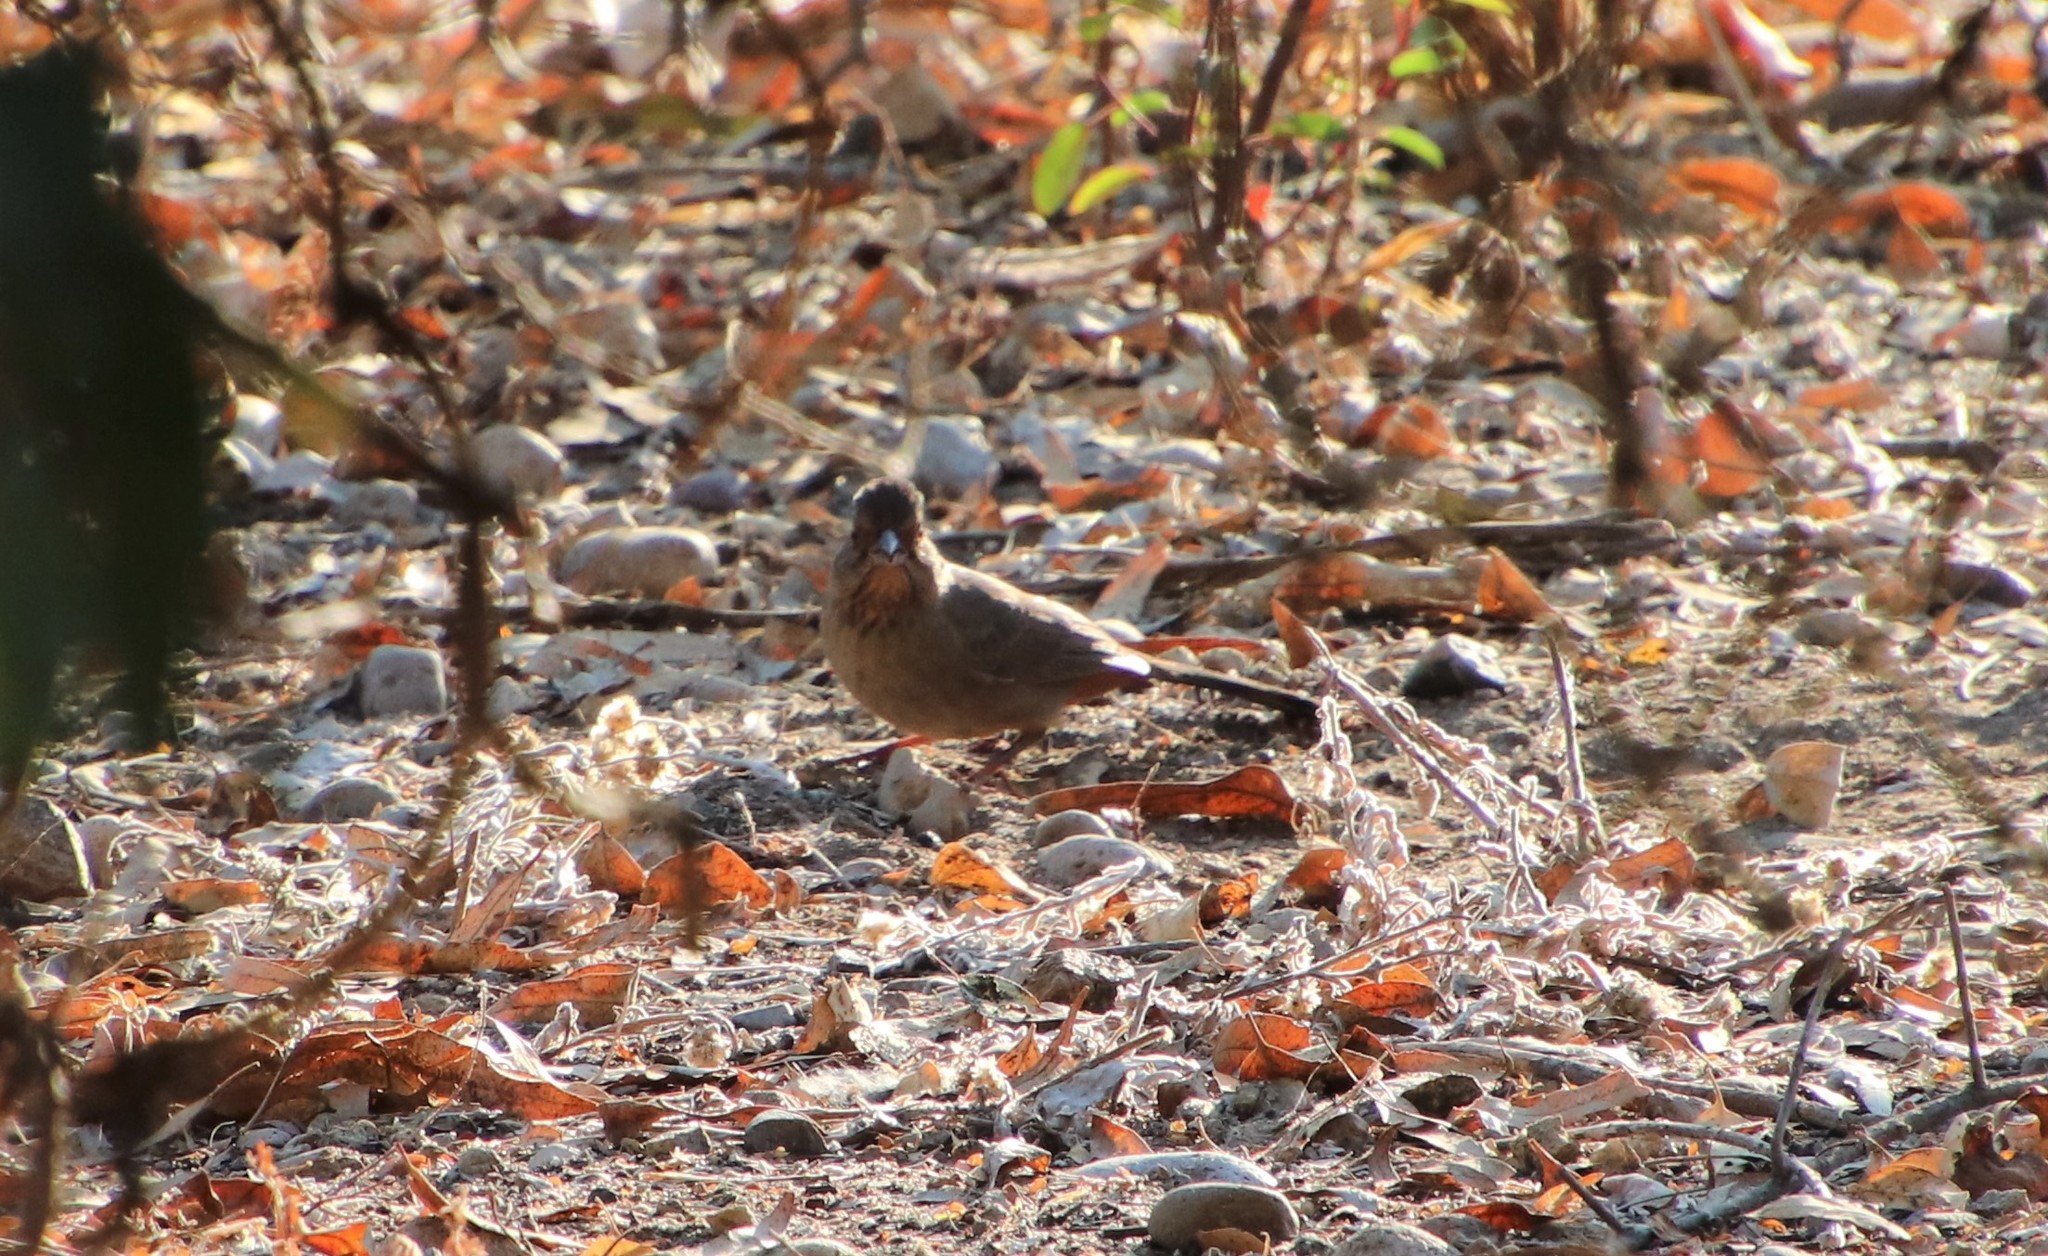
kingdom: Animalia
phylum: Chordata
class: Aves
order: Passeriformes
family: Passerellidae
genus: Melozone
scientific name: Melozone crissalis
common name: California towhee
